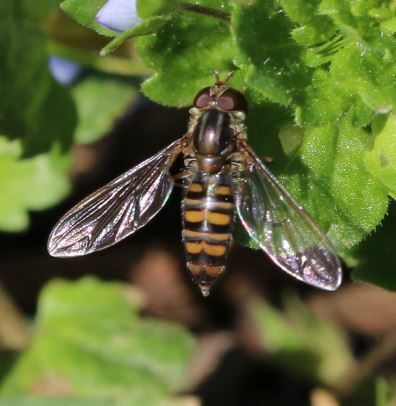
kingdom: Animalia
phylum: Arthropoda
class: Insecta
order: Diptera
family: Syrphidae
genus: Episyrphus
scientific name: Episyrphus balteatus
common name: Marmalade hoverfly
